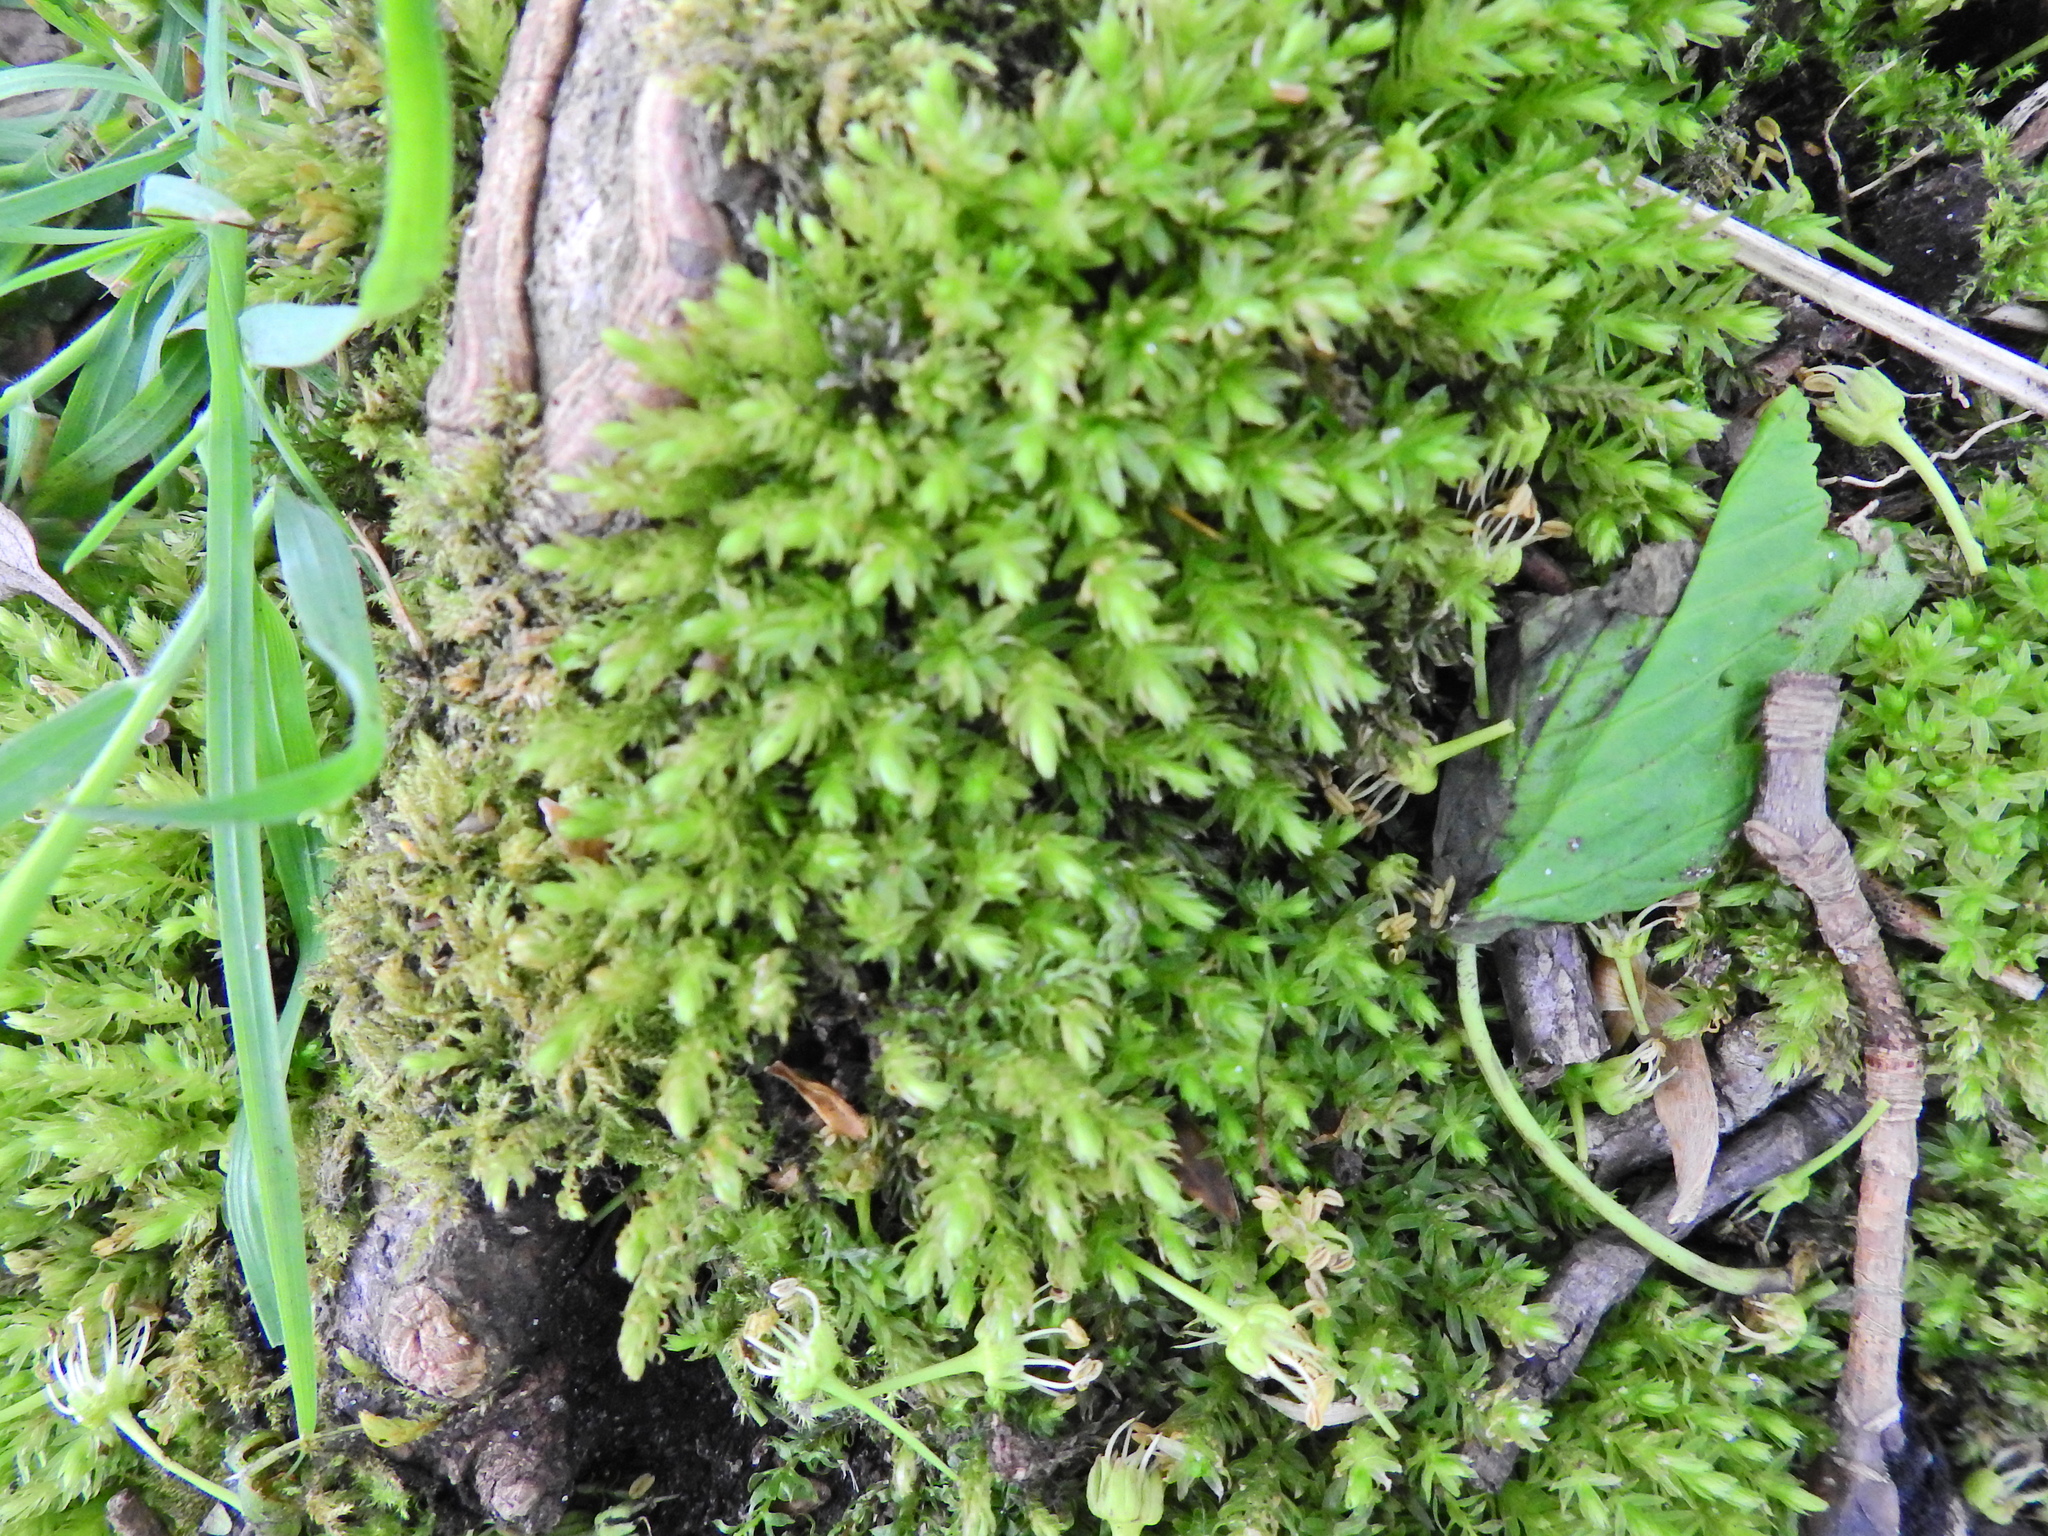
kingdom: Plantae
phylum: Bryophyta
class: Bryopsida
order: Bryales
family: Mniaceae
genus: Mnium
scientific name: Mnium hornum
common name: Swan's-neck leafy moss
